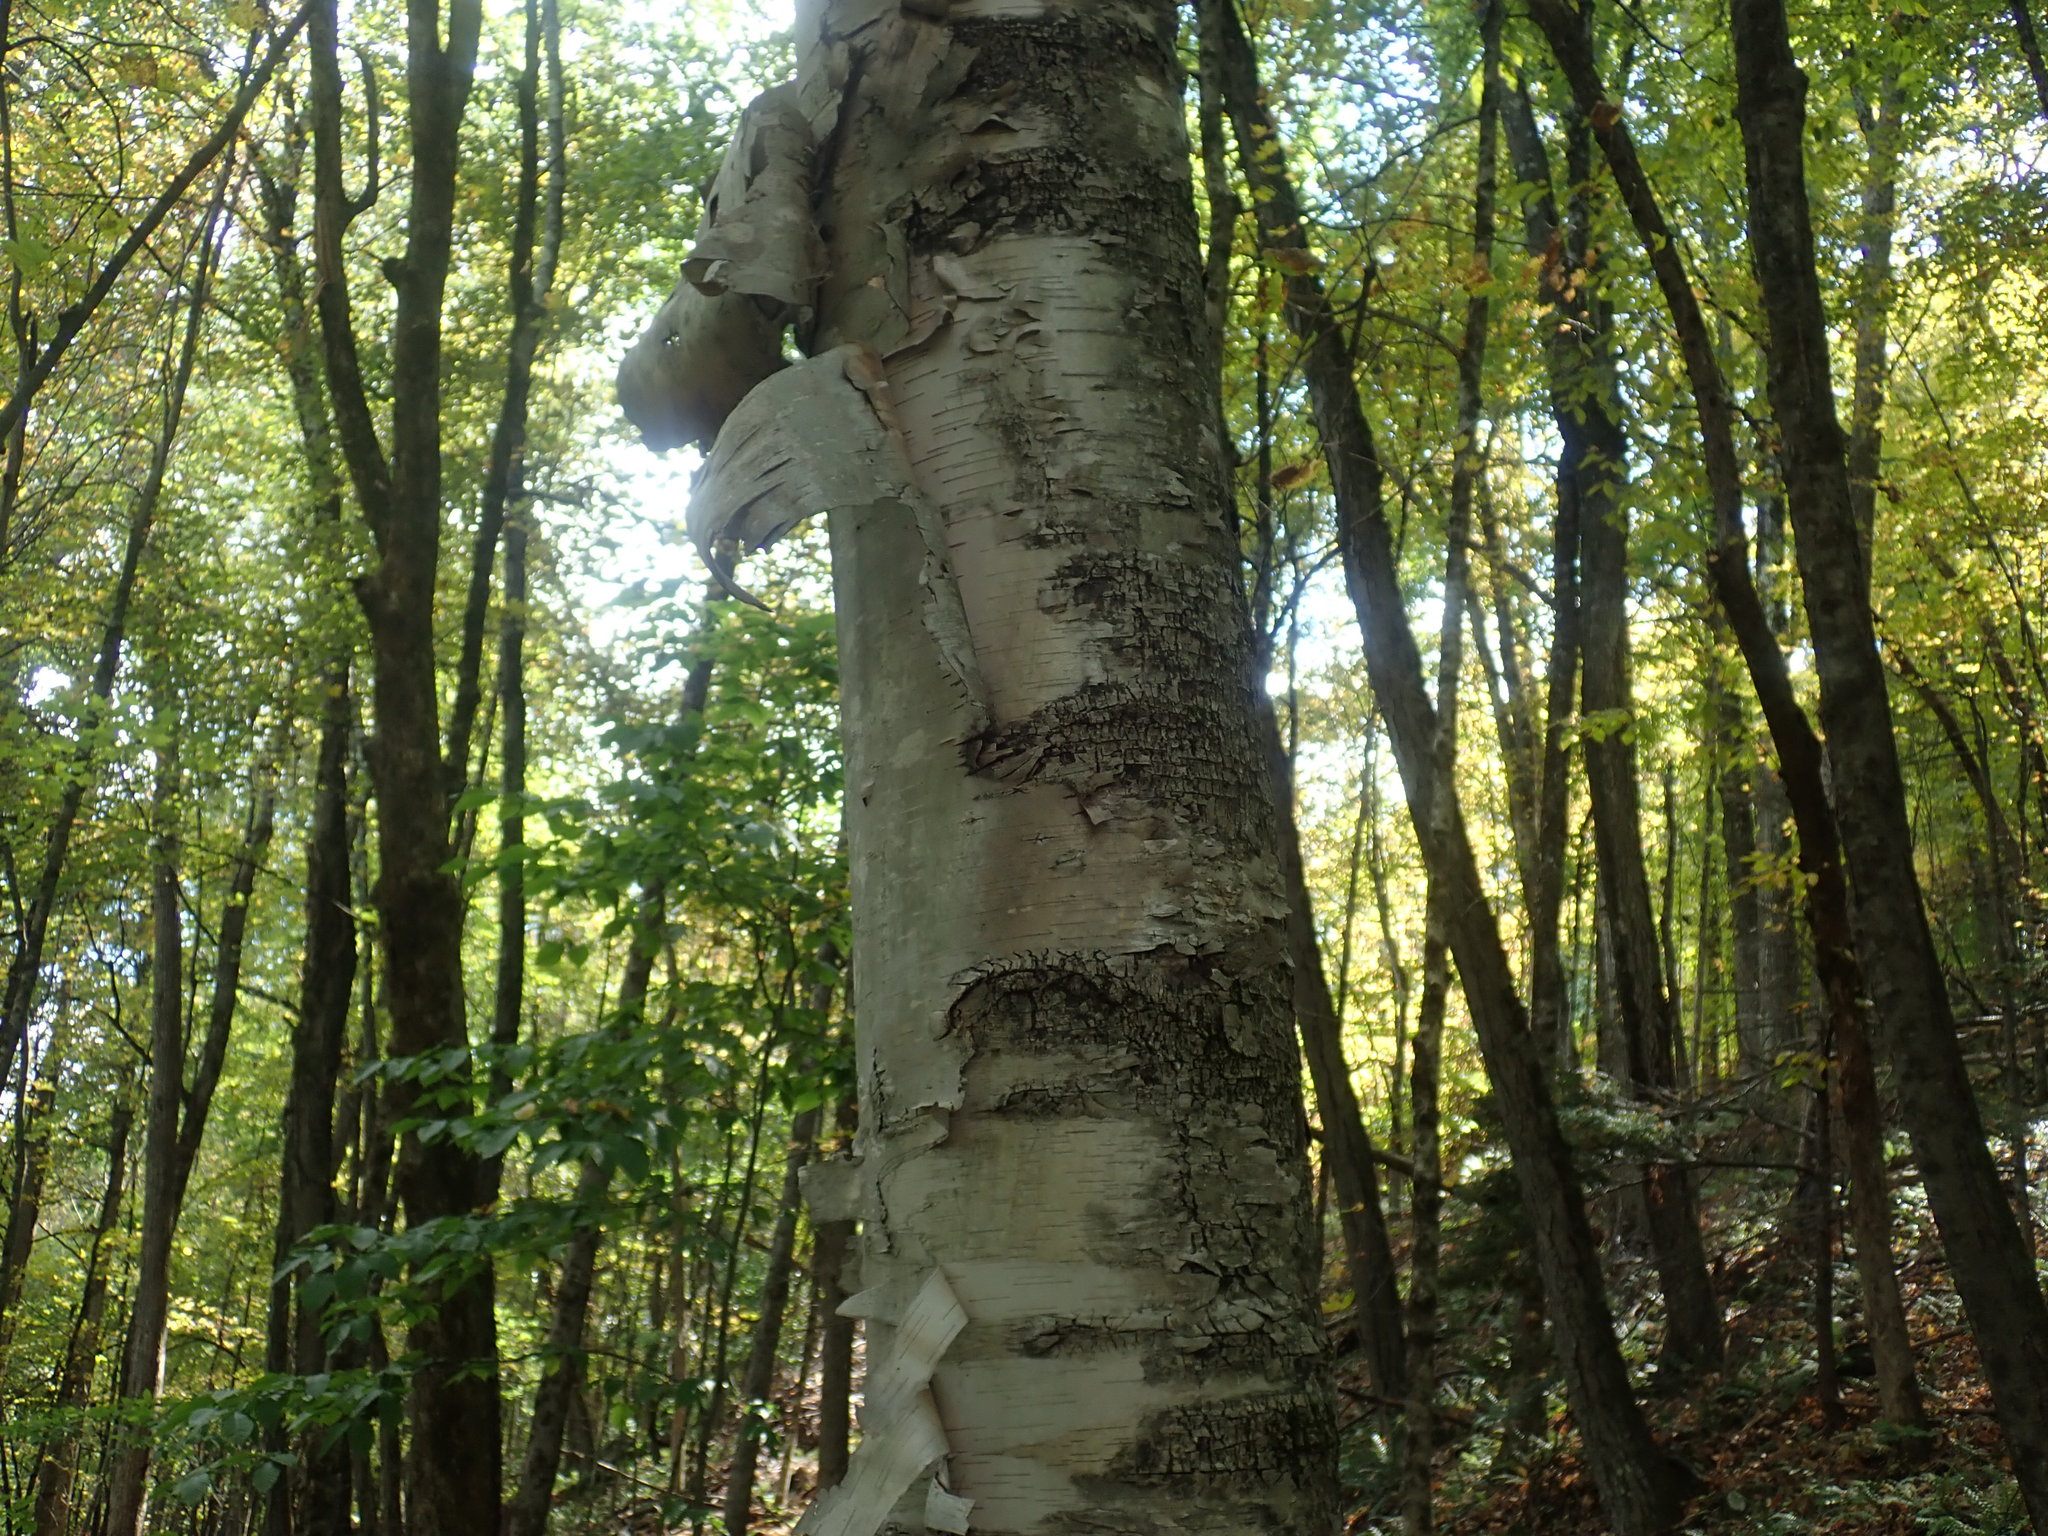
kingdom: Plantae
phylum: Tracheophyta
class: Magnoliopsida
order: Fagales
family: Betulaceae
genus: Betula
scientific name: Betula papyrifera
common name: Paper birch
